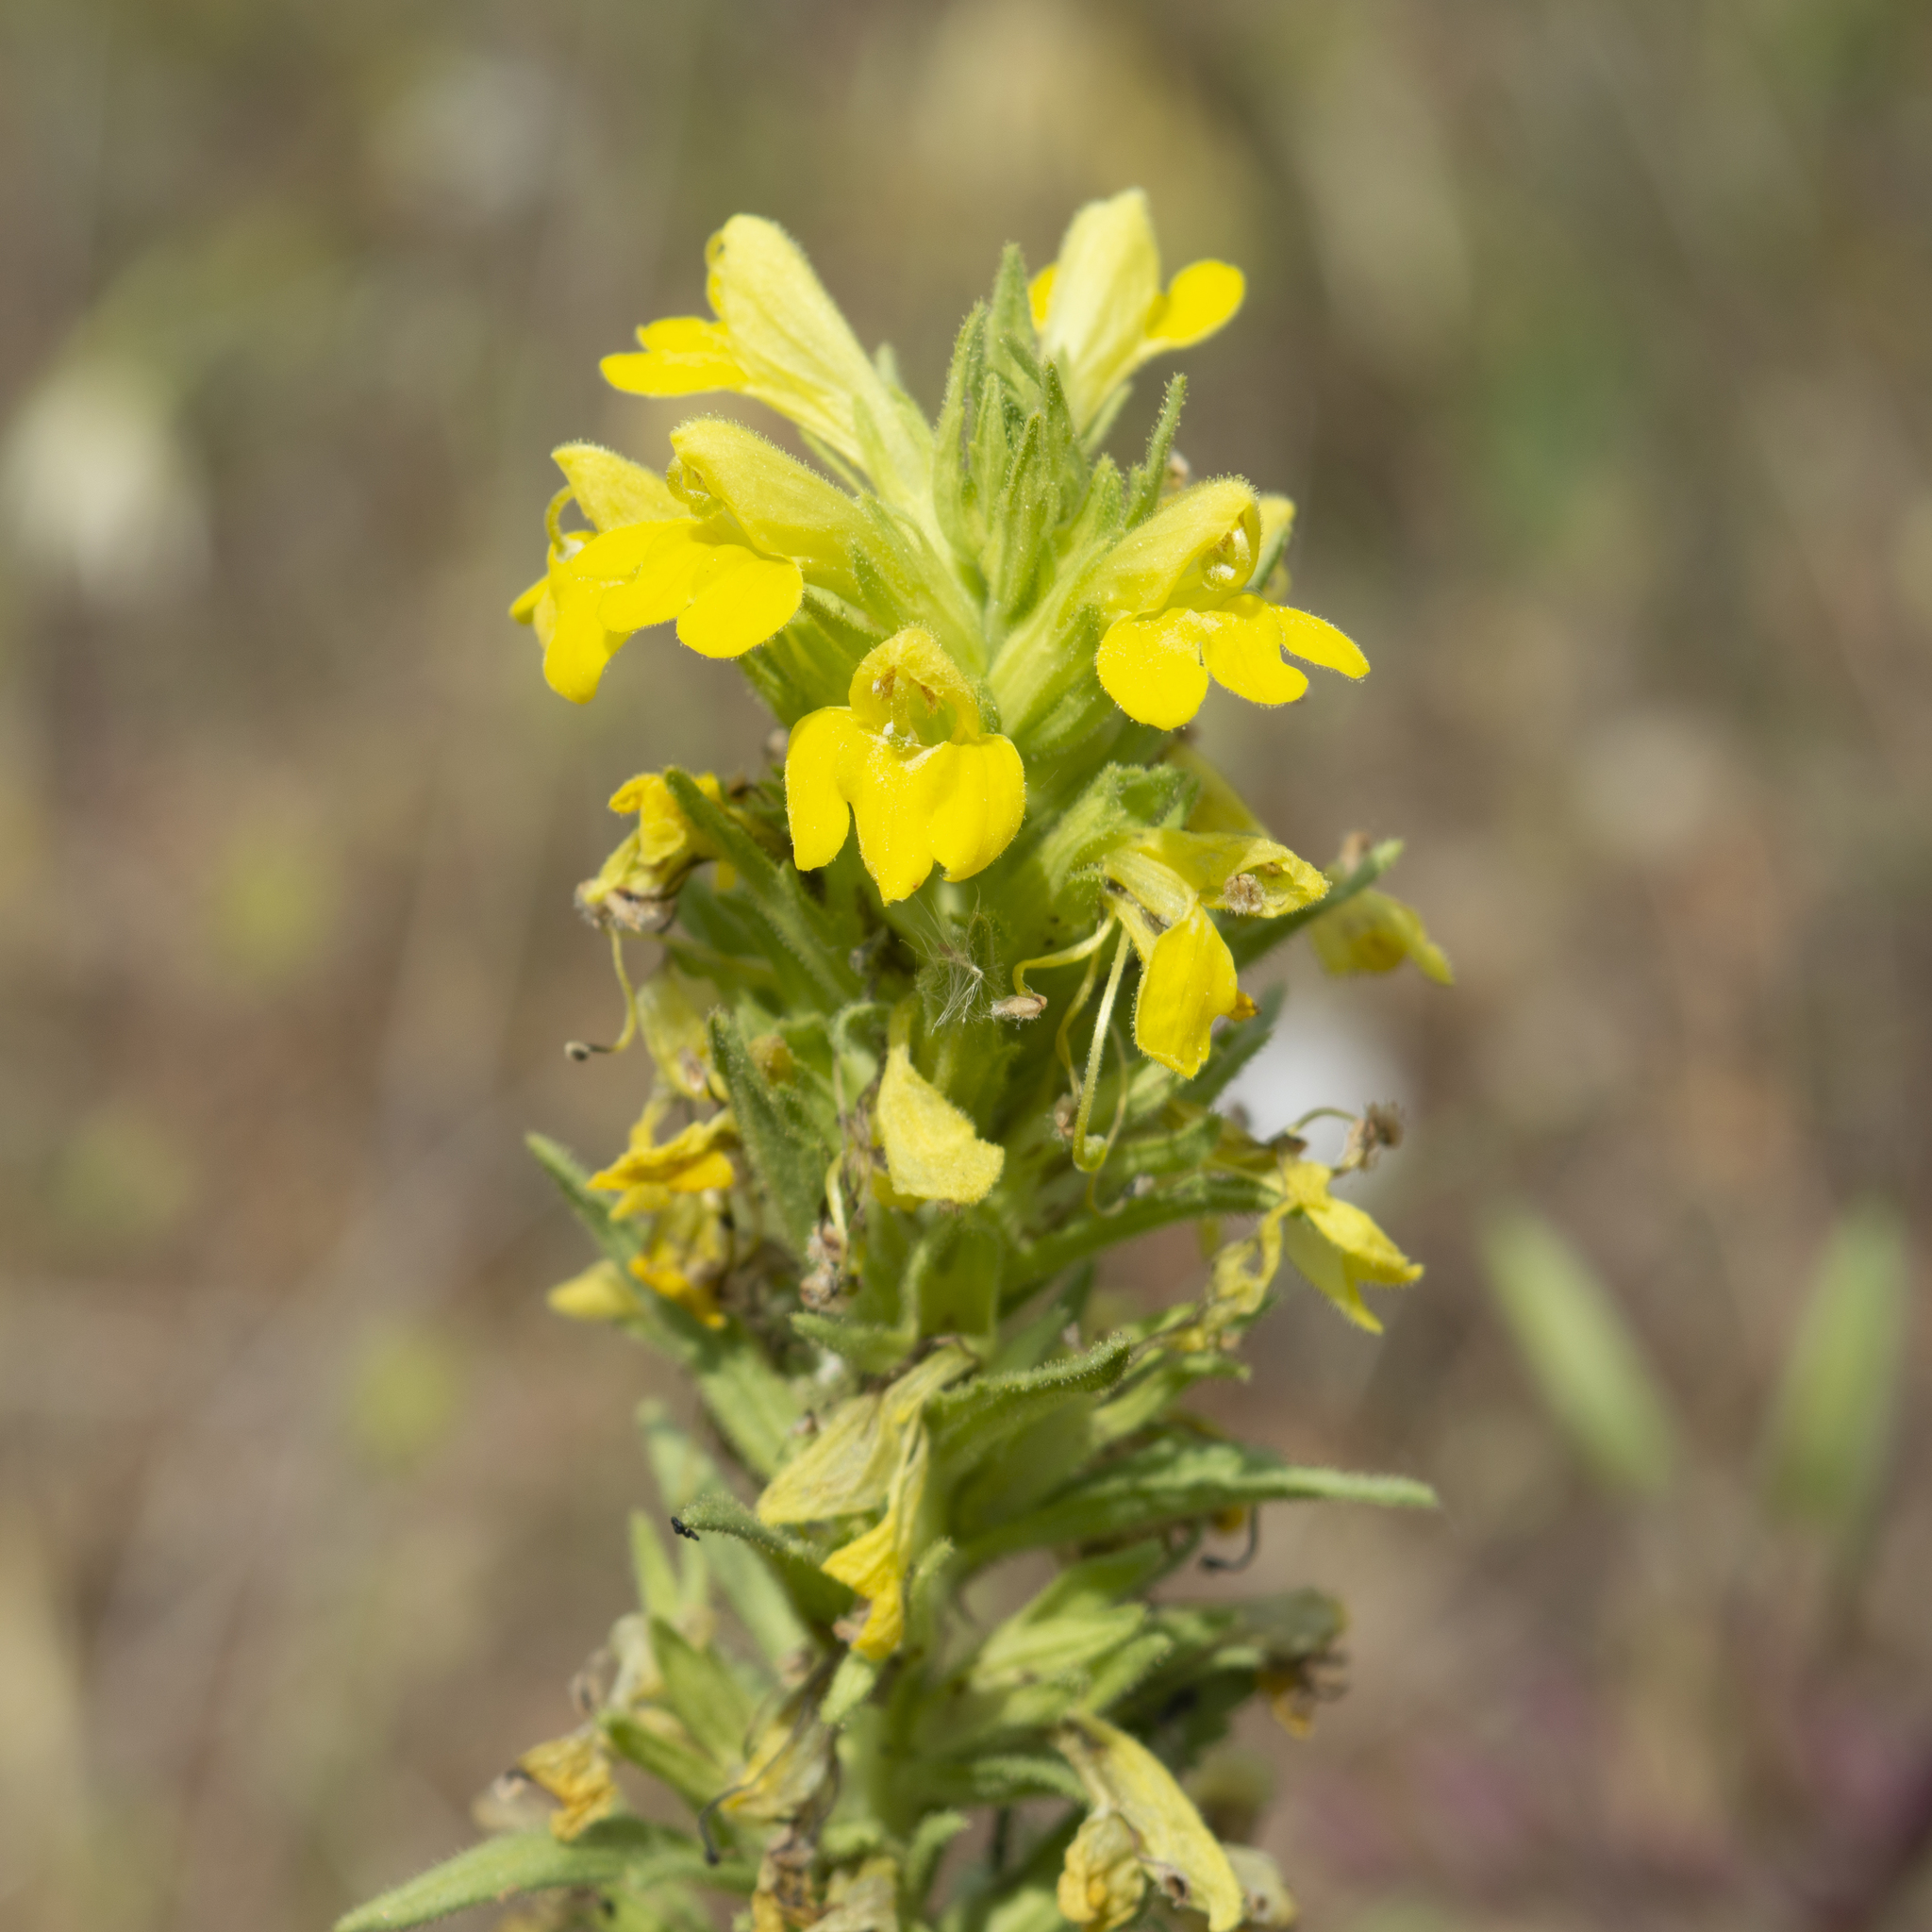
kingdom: Plantae
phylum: Tracheophyta
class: Magnoliopsida
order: Lamiales
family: Orobanchaceae
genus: Bellardia
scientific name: Bellardia viscosa
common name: Sticky parentucellia
